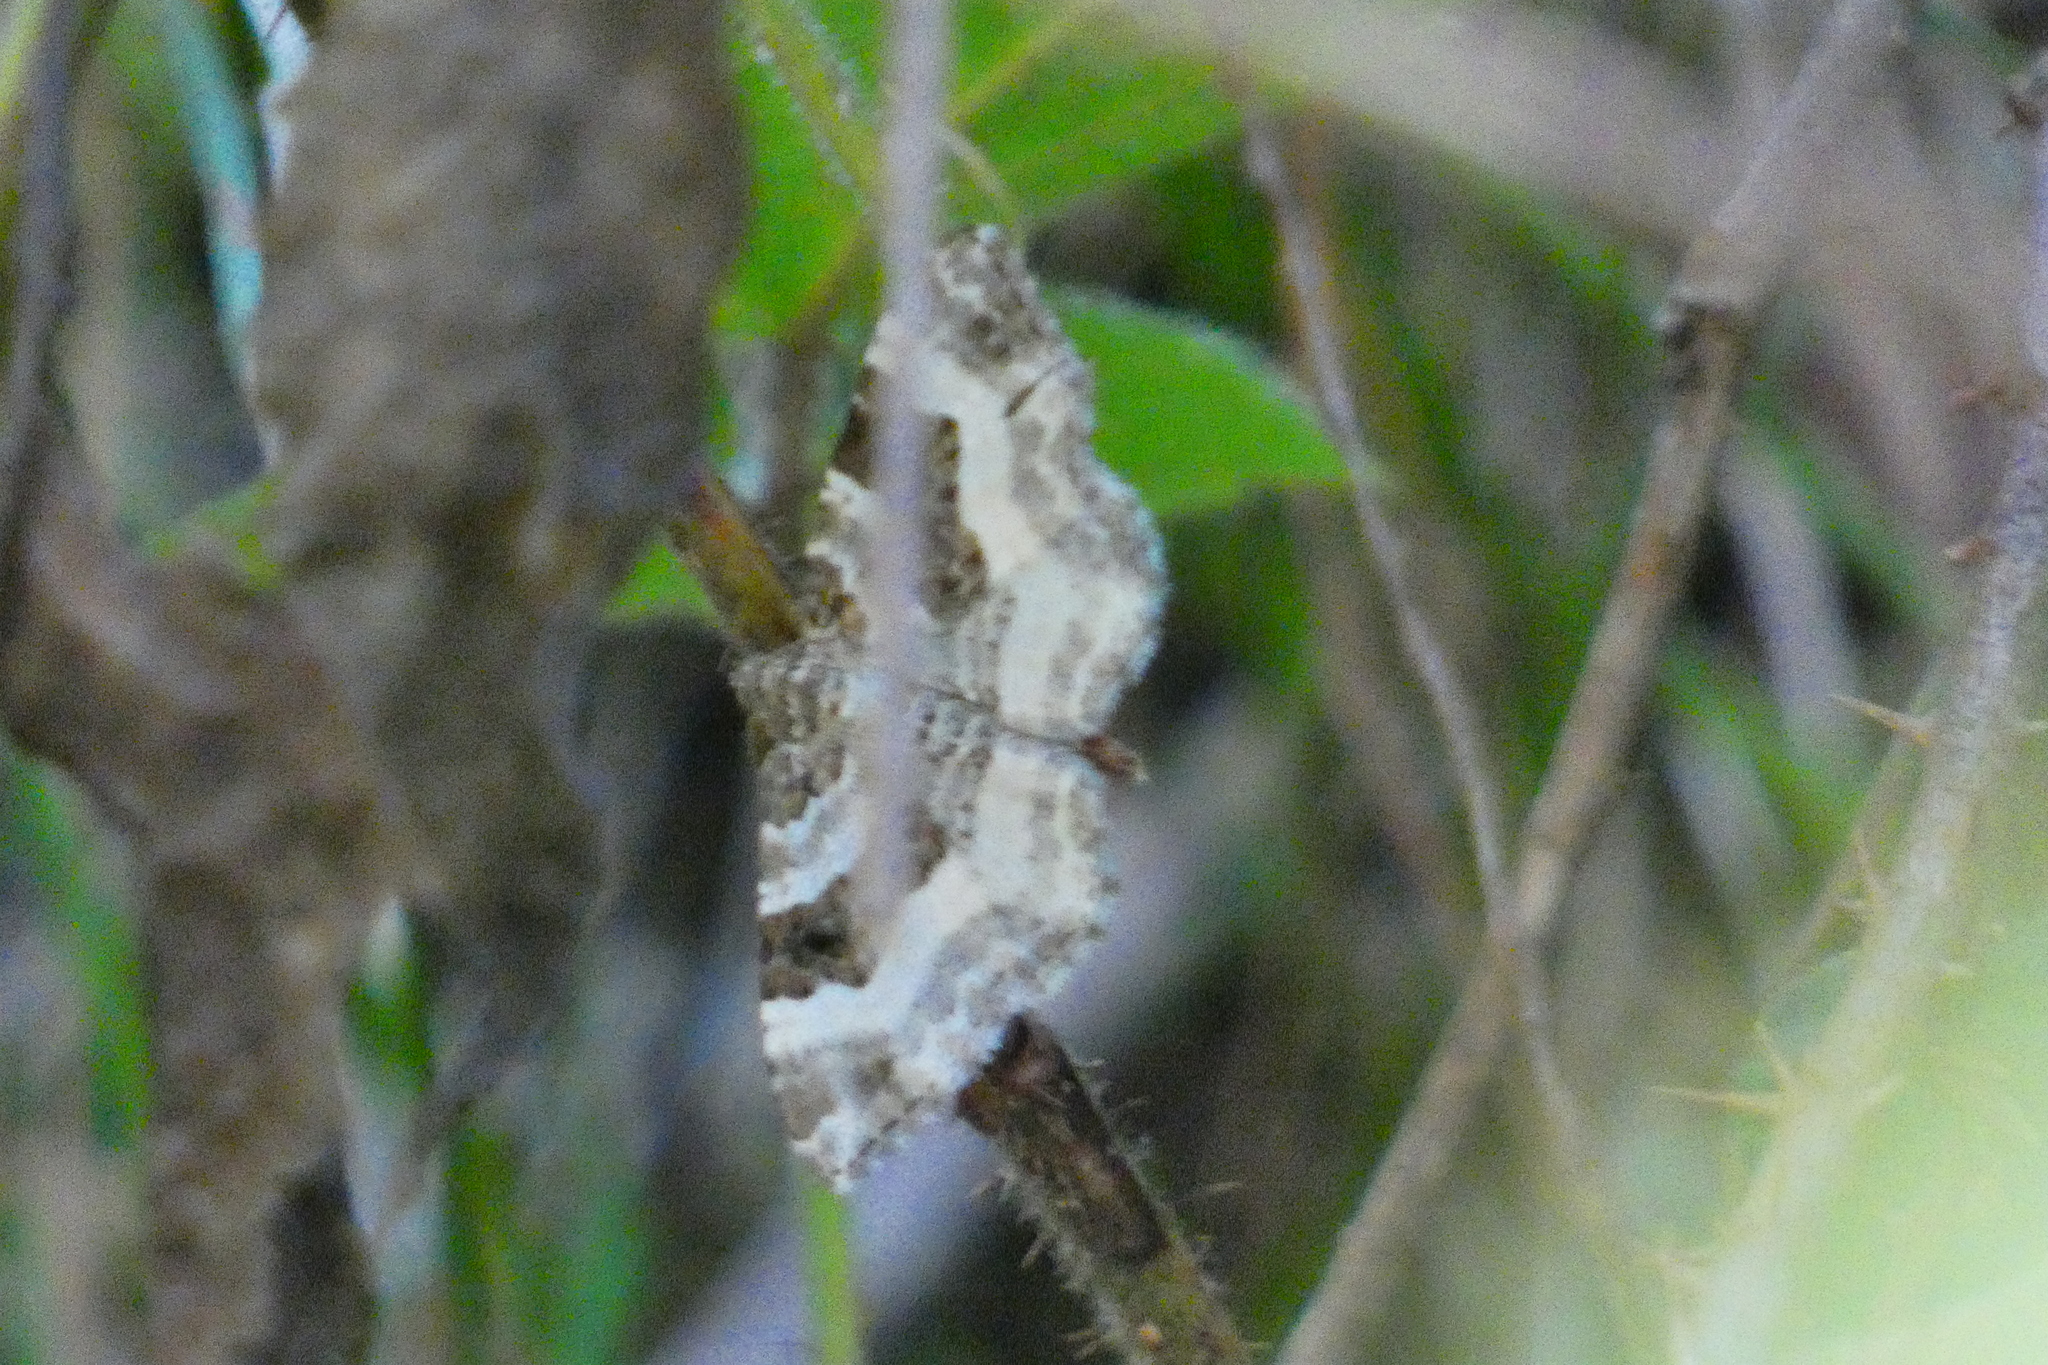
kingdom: Animalia
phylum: Arthropoda
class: Insecta
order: Lepidoptera
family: Geometridae
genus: Epirrhoe
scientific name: Epirrhoe alternata
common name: Common carpet
